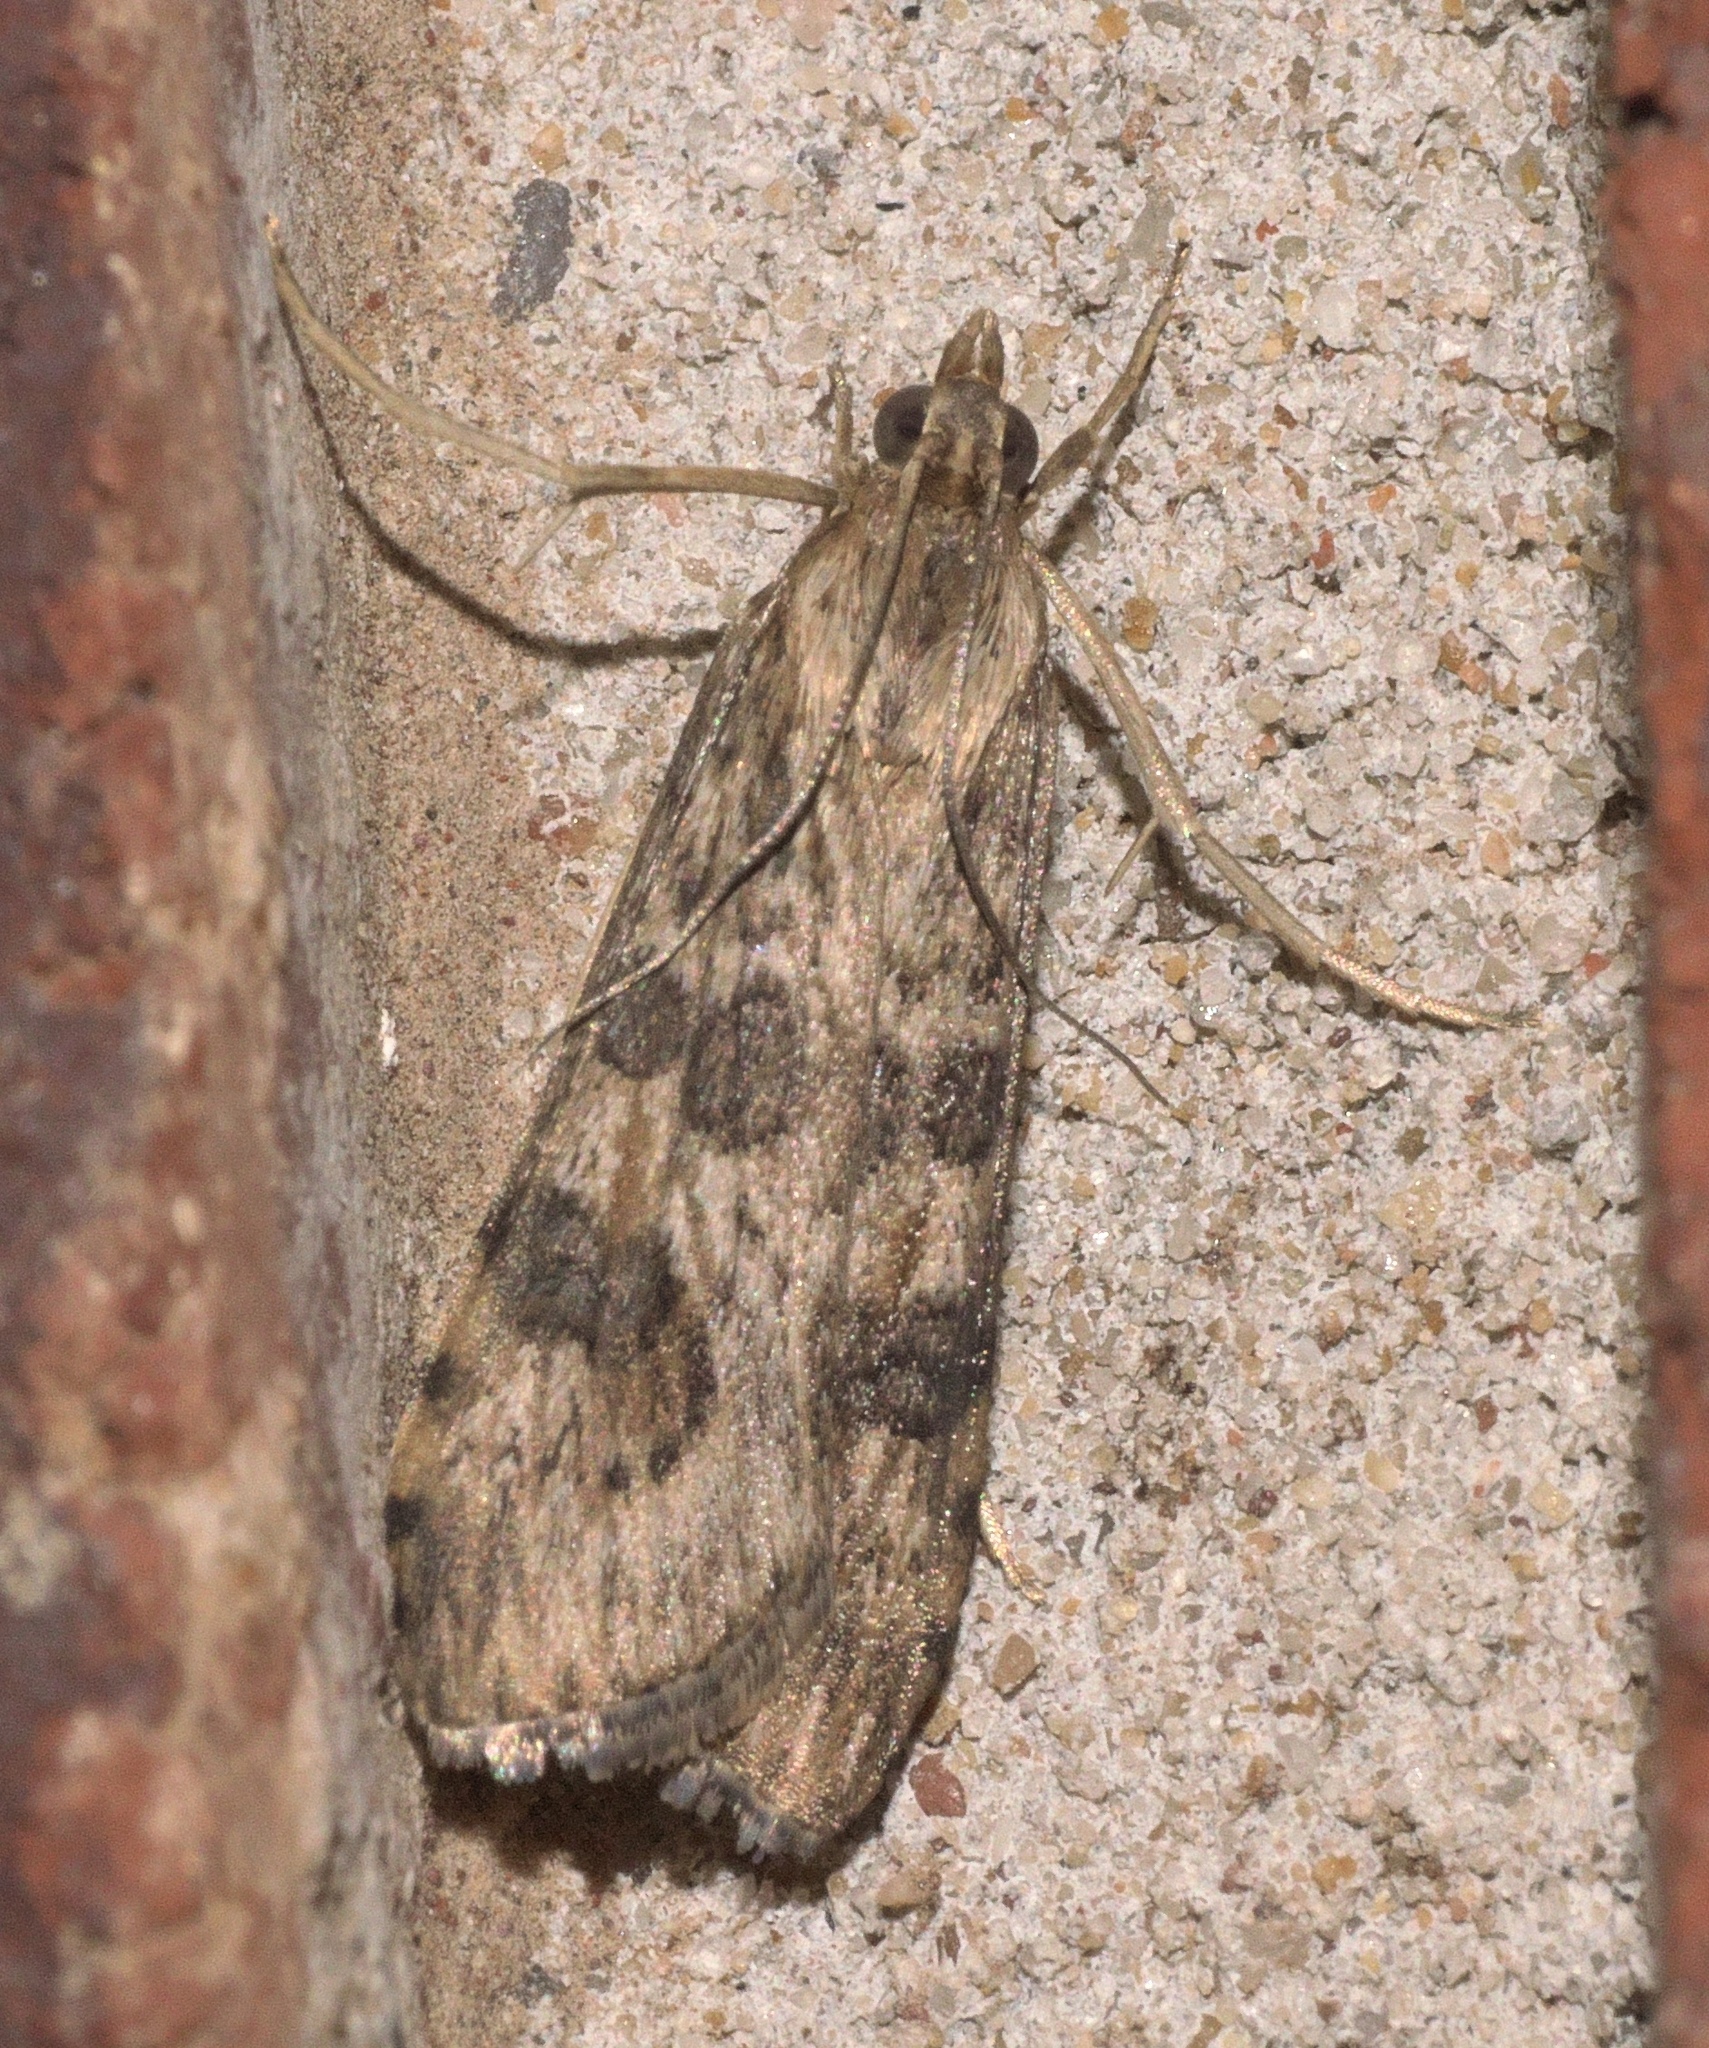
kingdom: Animalia
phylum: Arthropoda
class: Insecta
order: Lepidoptera
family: Crambidae
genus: Nomophila
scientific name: Nomophila nearctica
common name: American rush veneer
